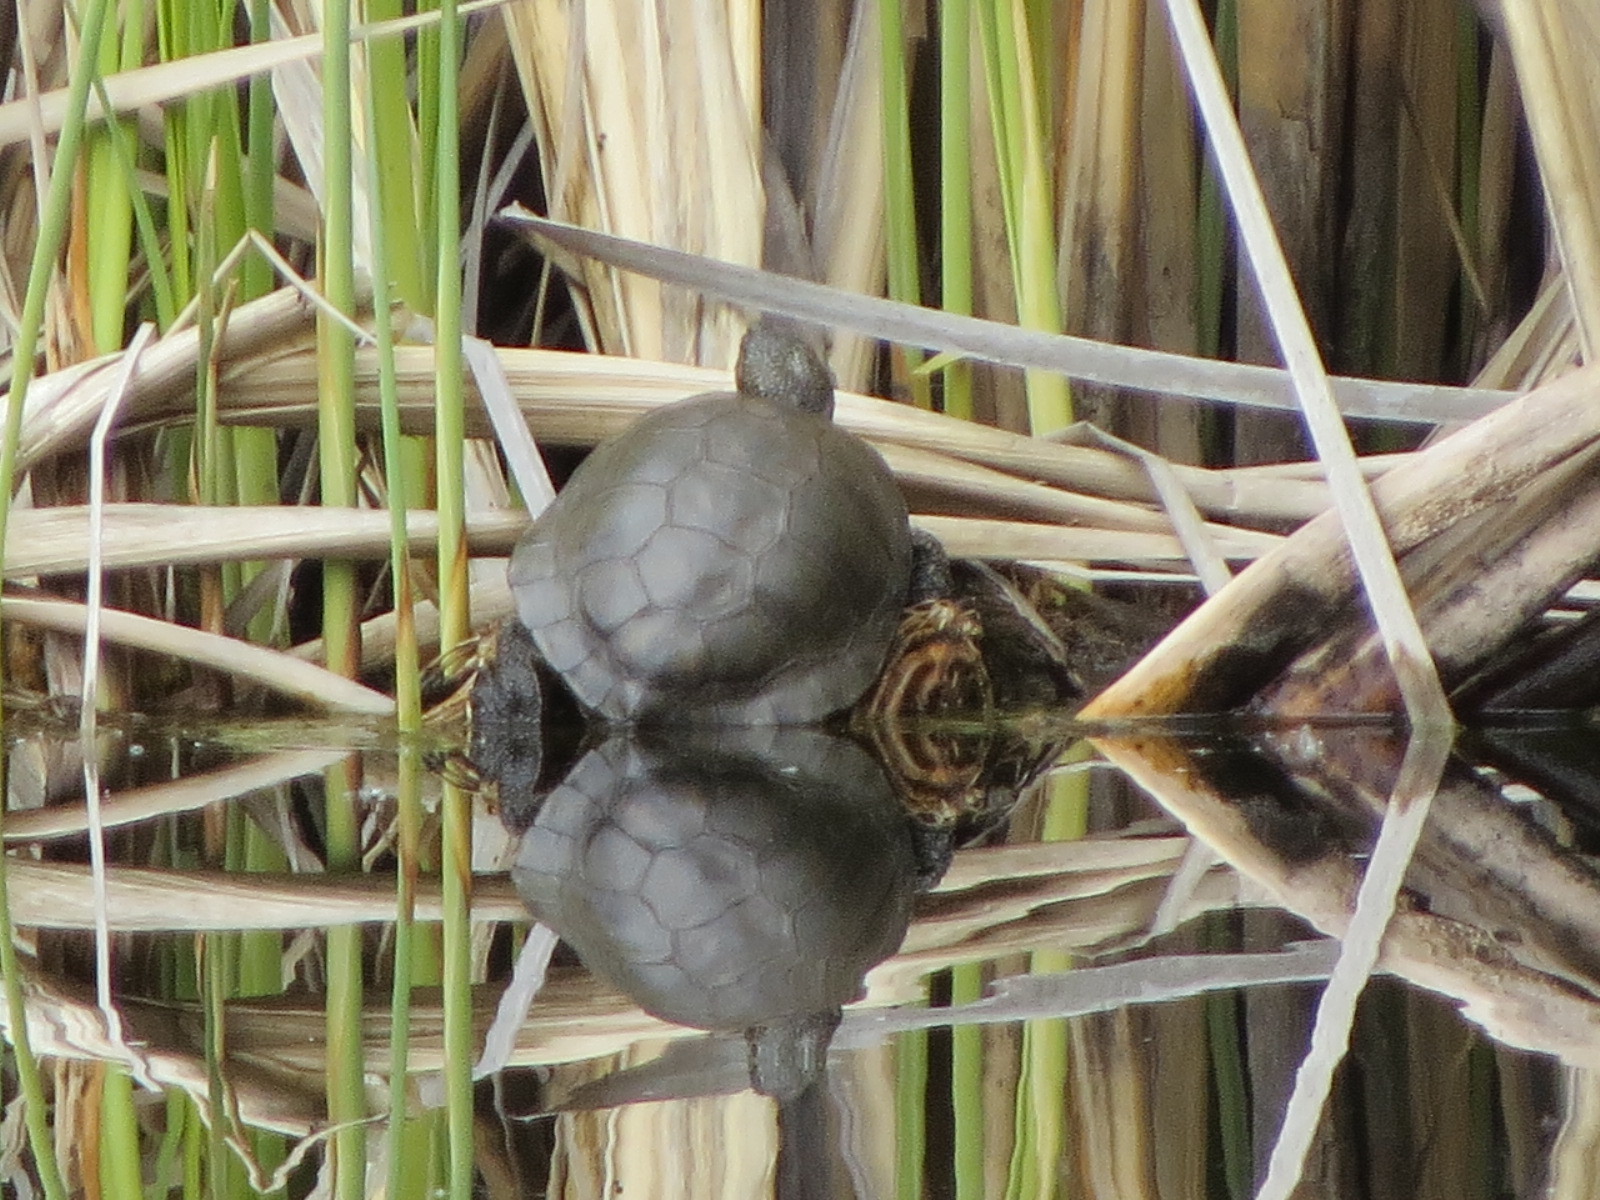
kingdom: Animalia
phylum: Chordata
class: Testudines
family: Emydidae
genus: Actinemys
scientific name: Actinemys marmorata
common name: Western pond turtle
